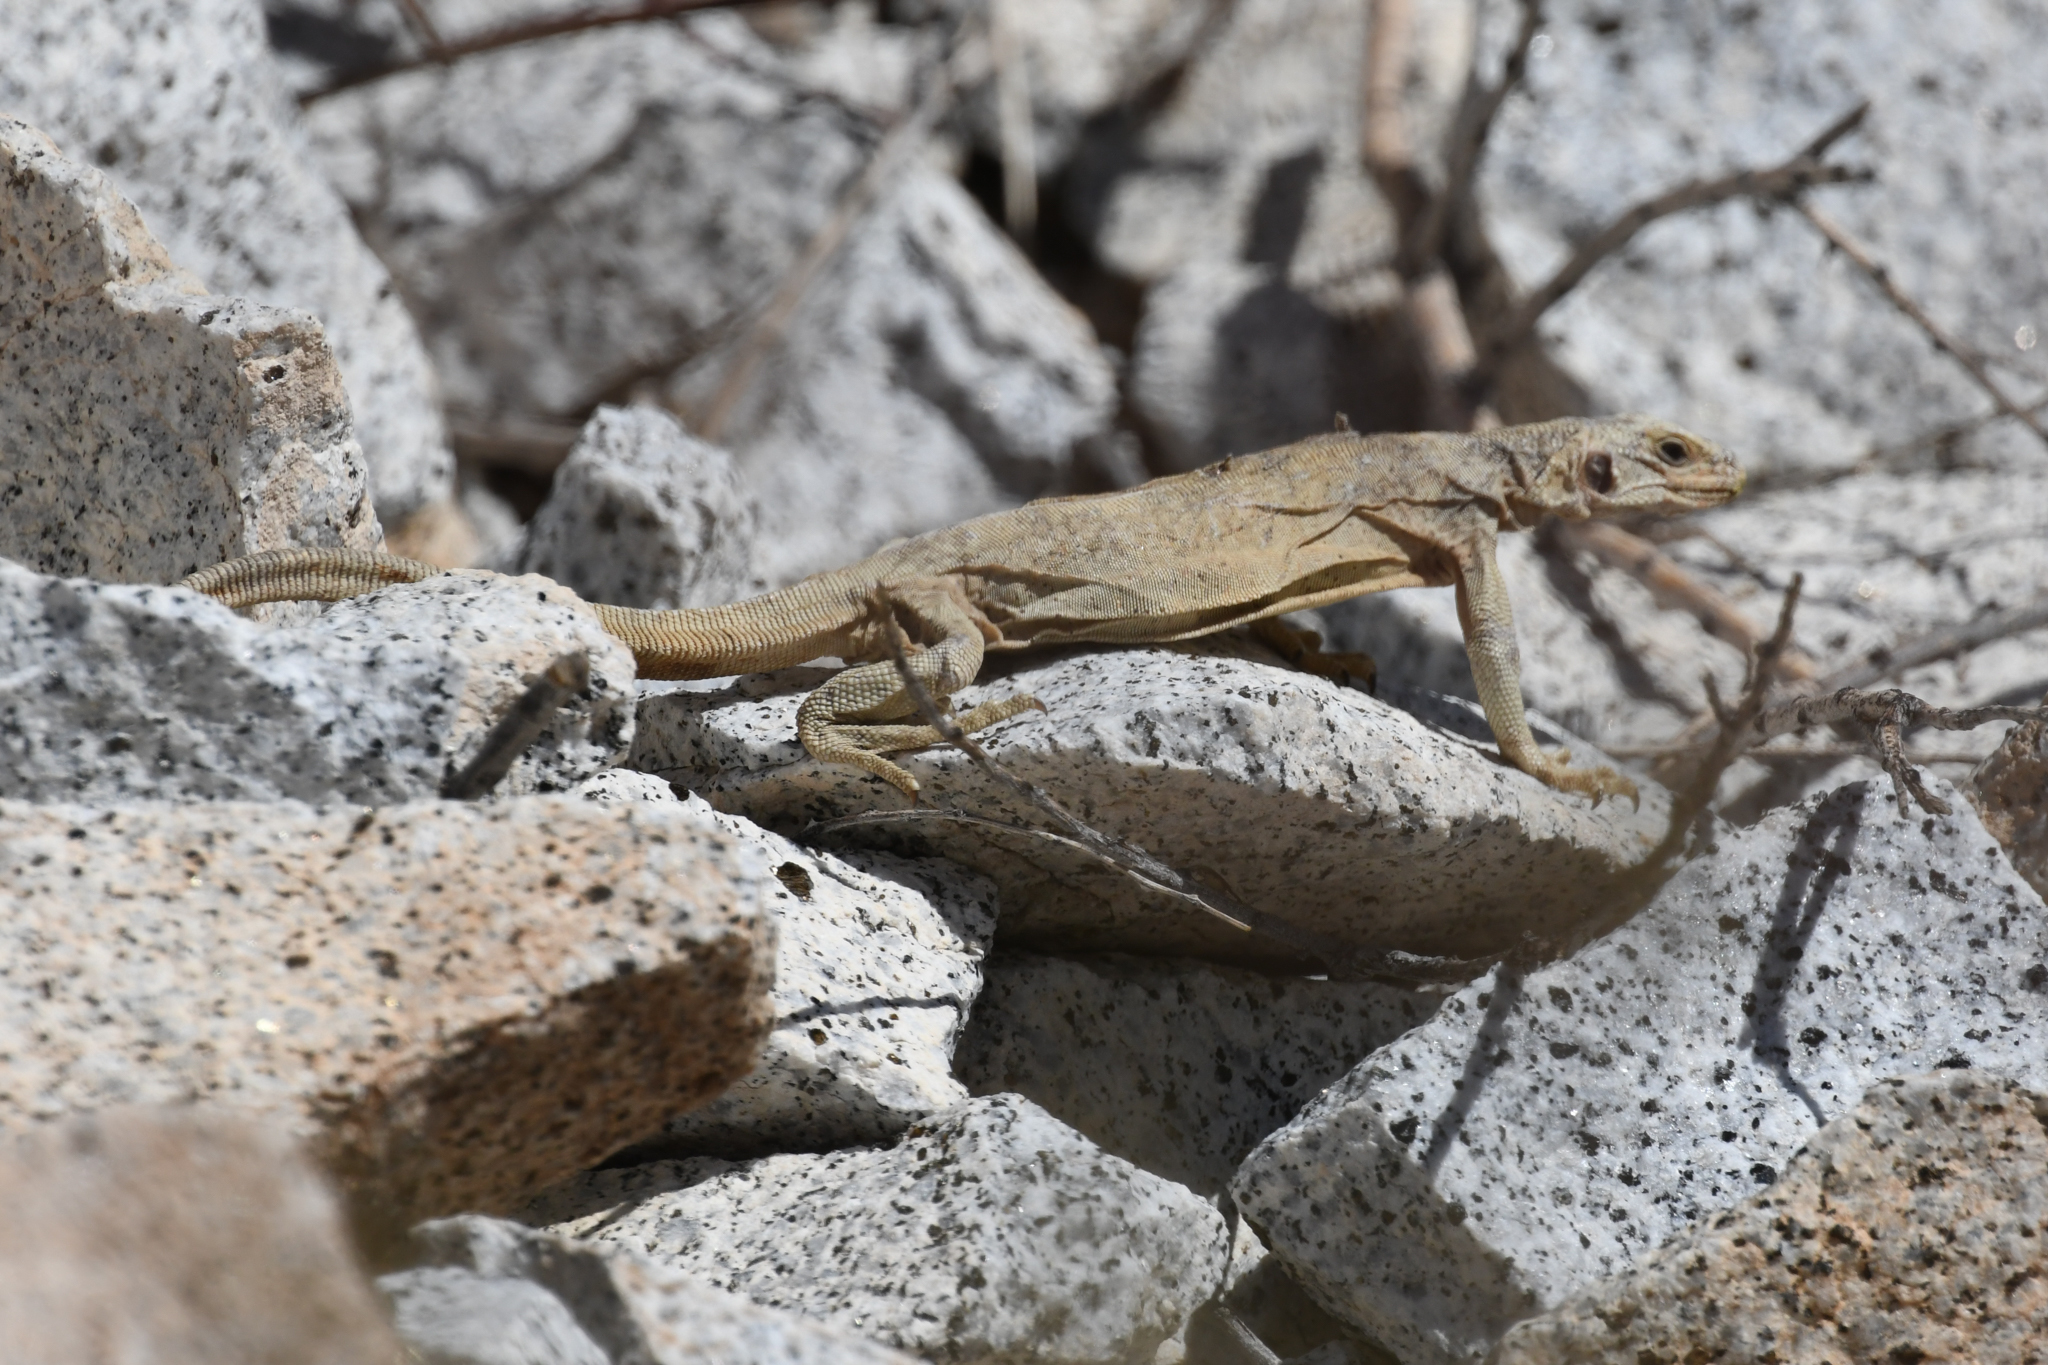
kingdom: Animalia
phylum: Chordata
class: Squamata
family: Iguanidae
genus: Sauromalus
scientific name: Sauromalus ater
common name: Northern chuckwalla
